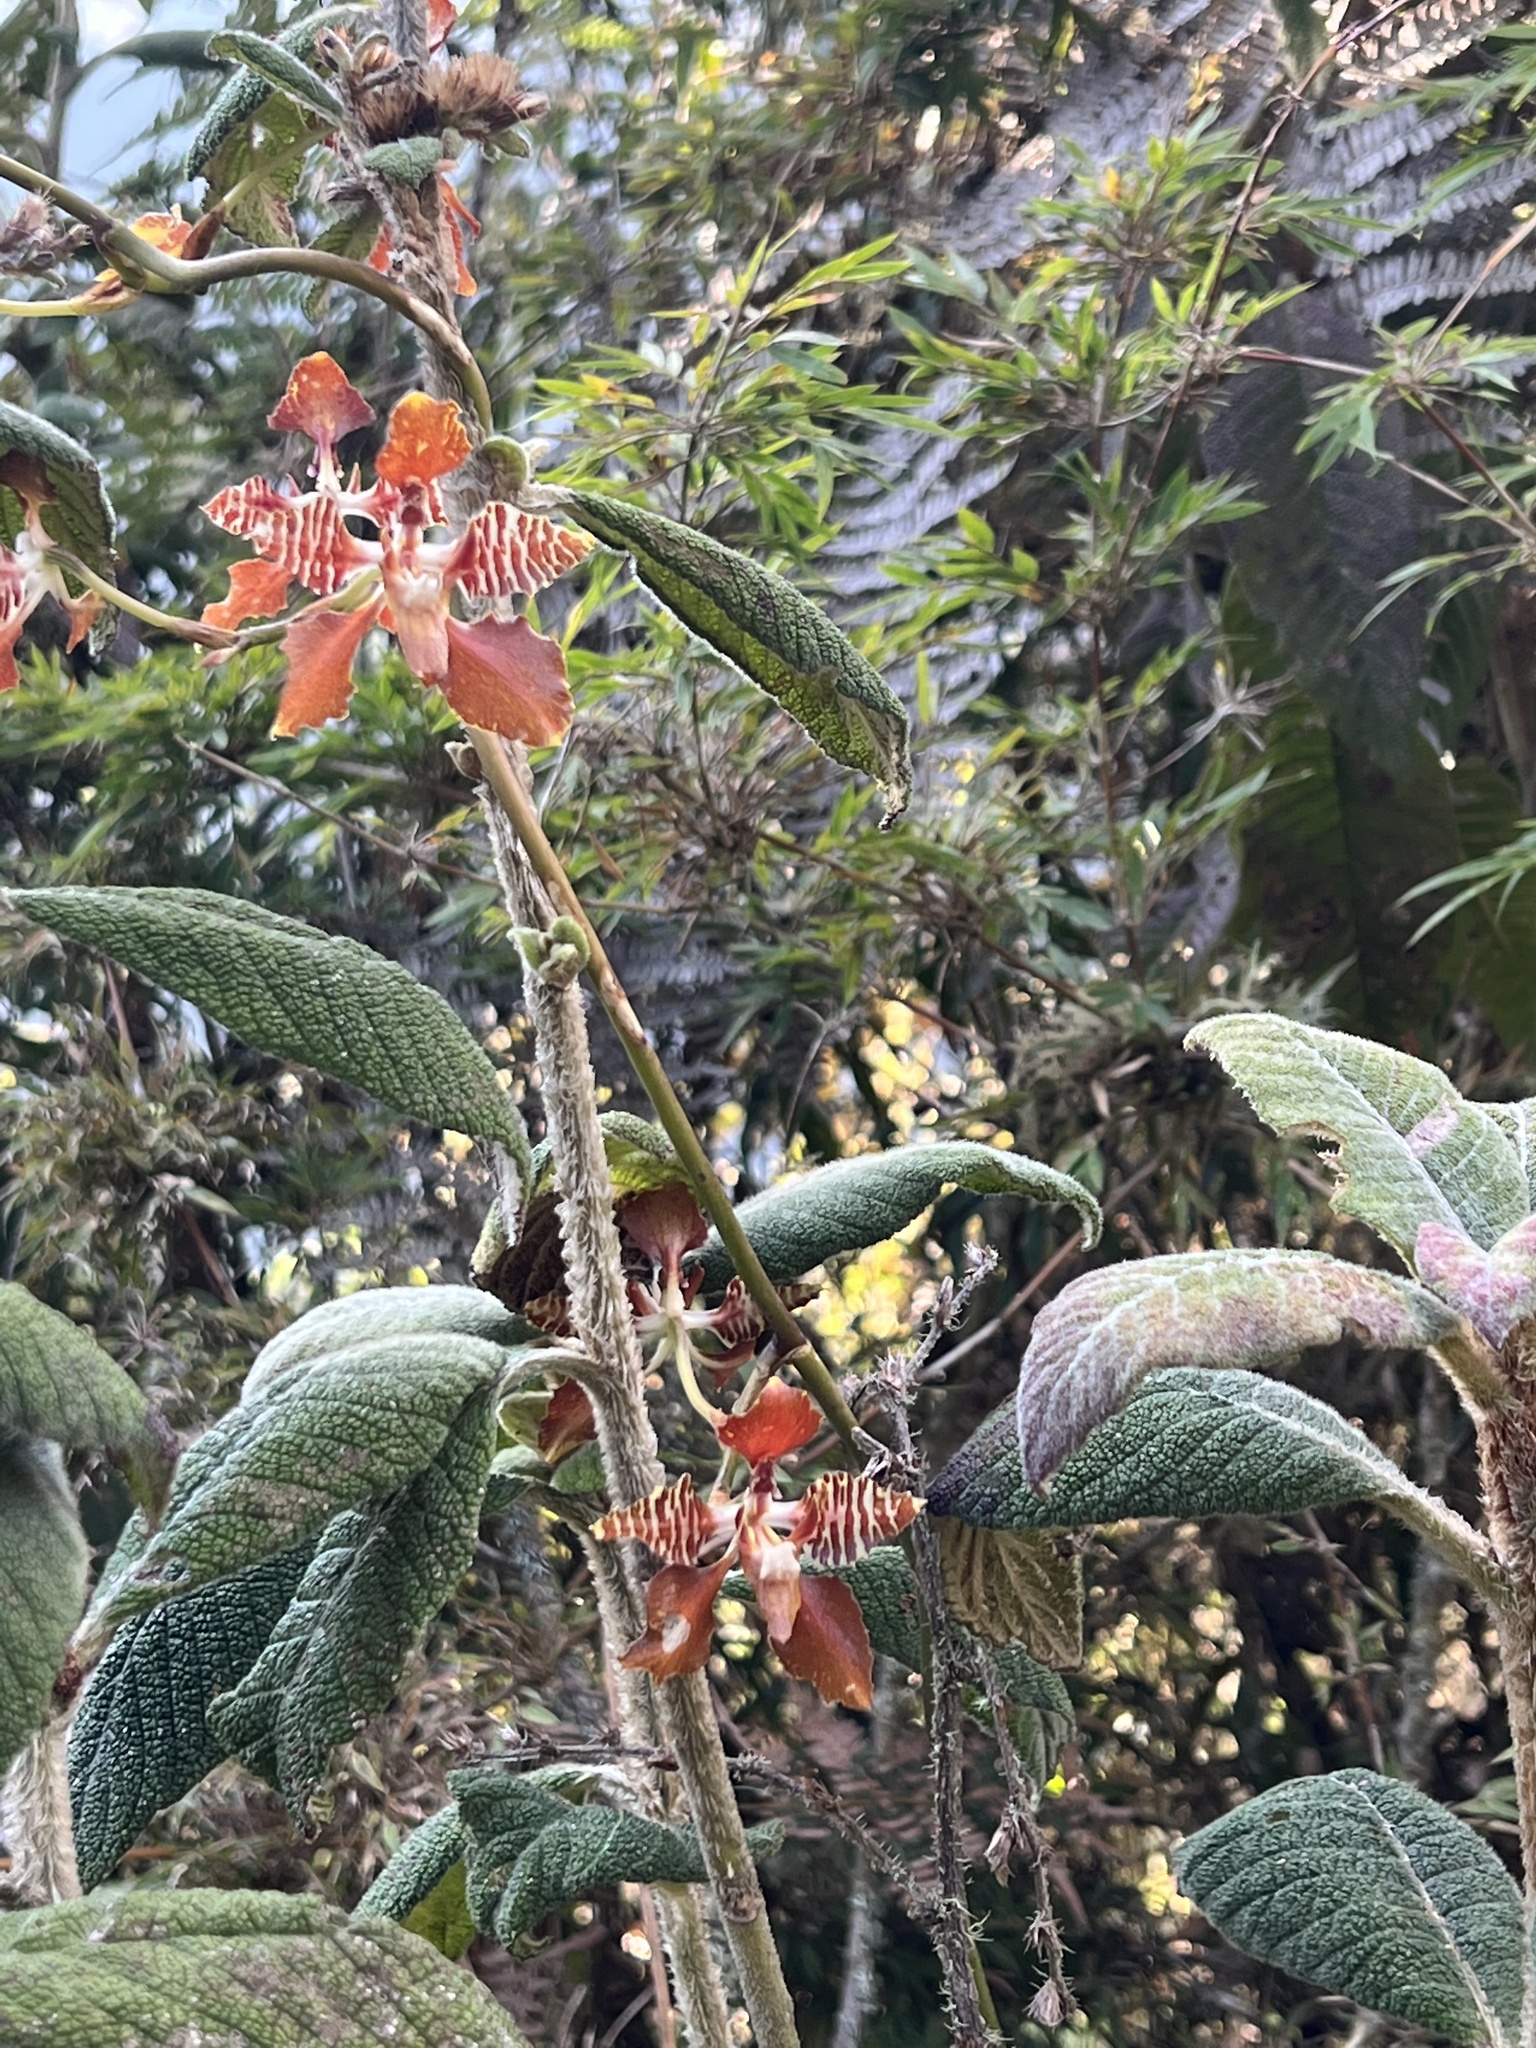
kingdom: Plantae
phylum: Tracheophyta
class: Liliopsida
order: Asparagales
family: Orchidaceae
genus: Cyrtochilum
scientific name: Cyrtochilum minax
